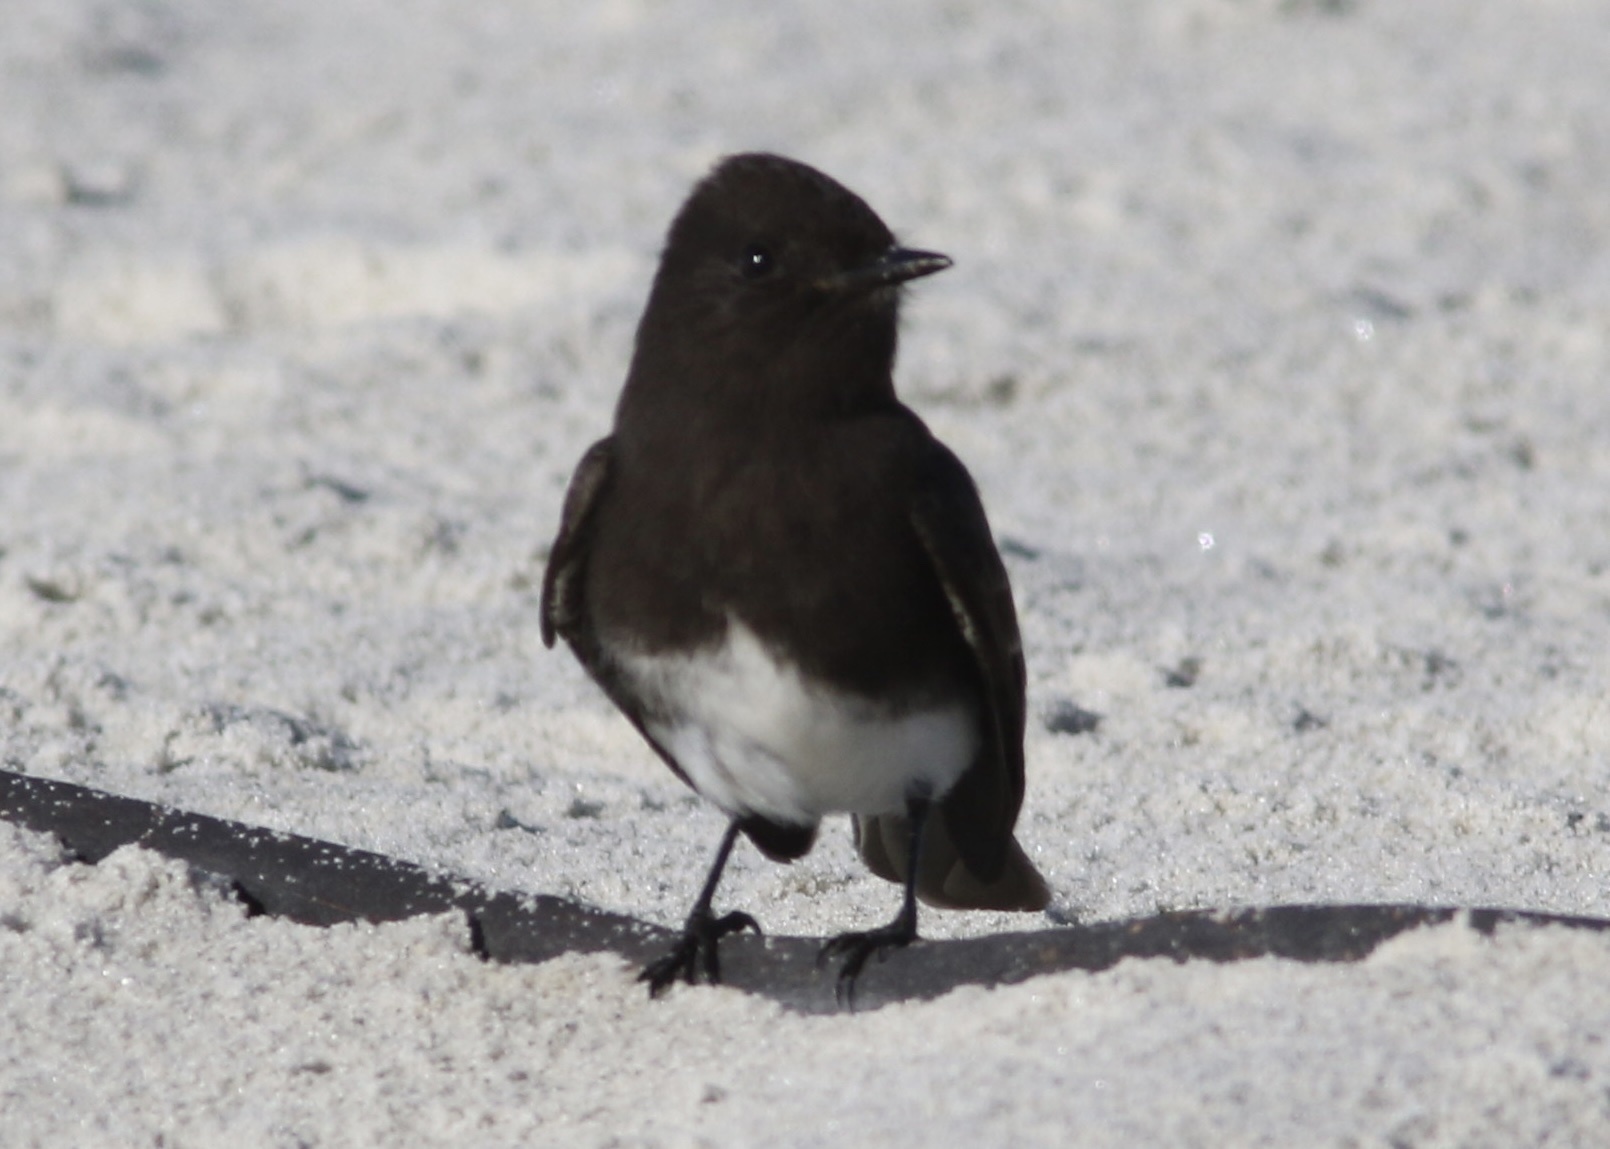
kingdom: Animalia
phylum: Chordata
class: Aves
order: Passeriformes
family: Tyrannidae
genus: Sayornis
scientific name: Sayornis nigricans
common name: Black phoebe
